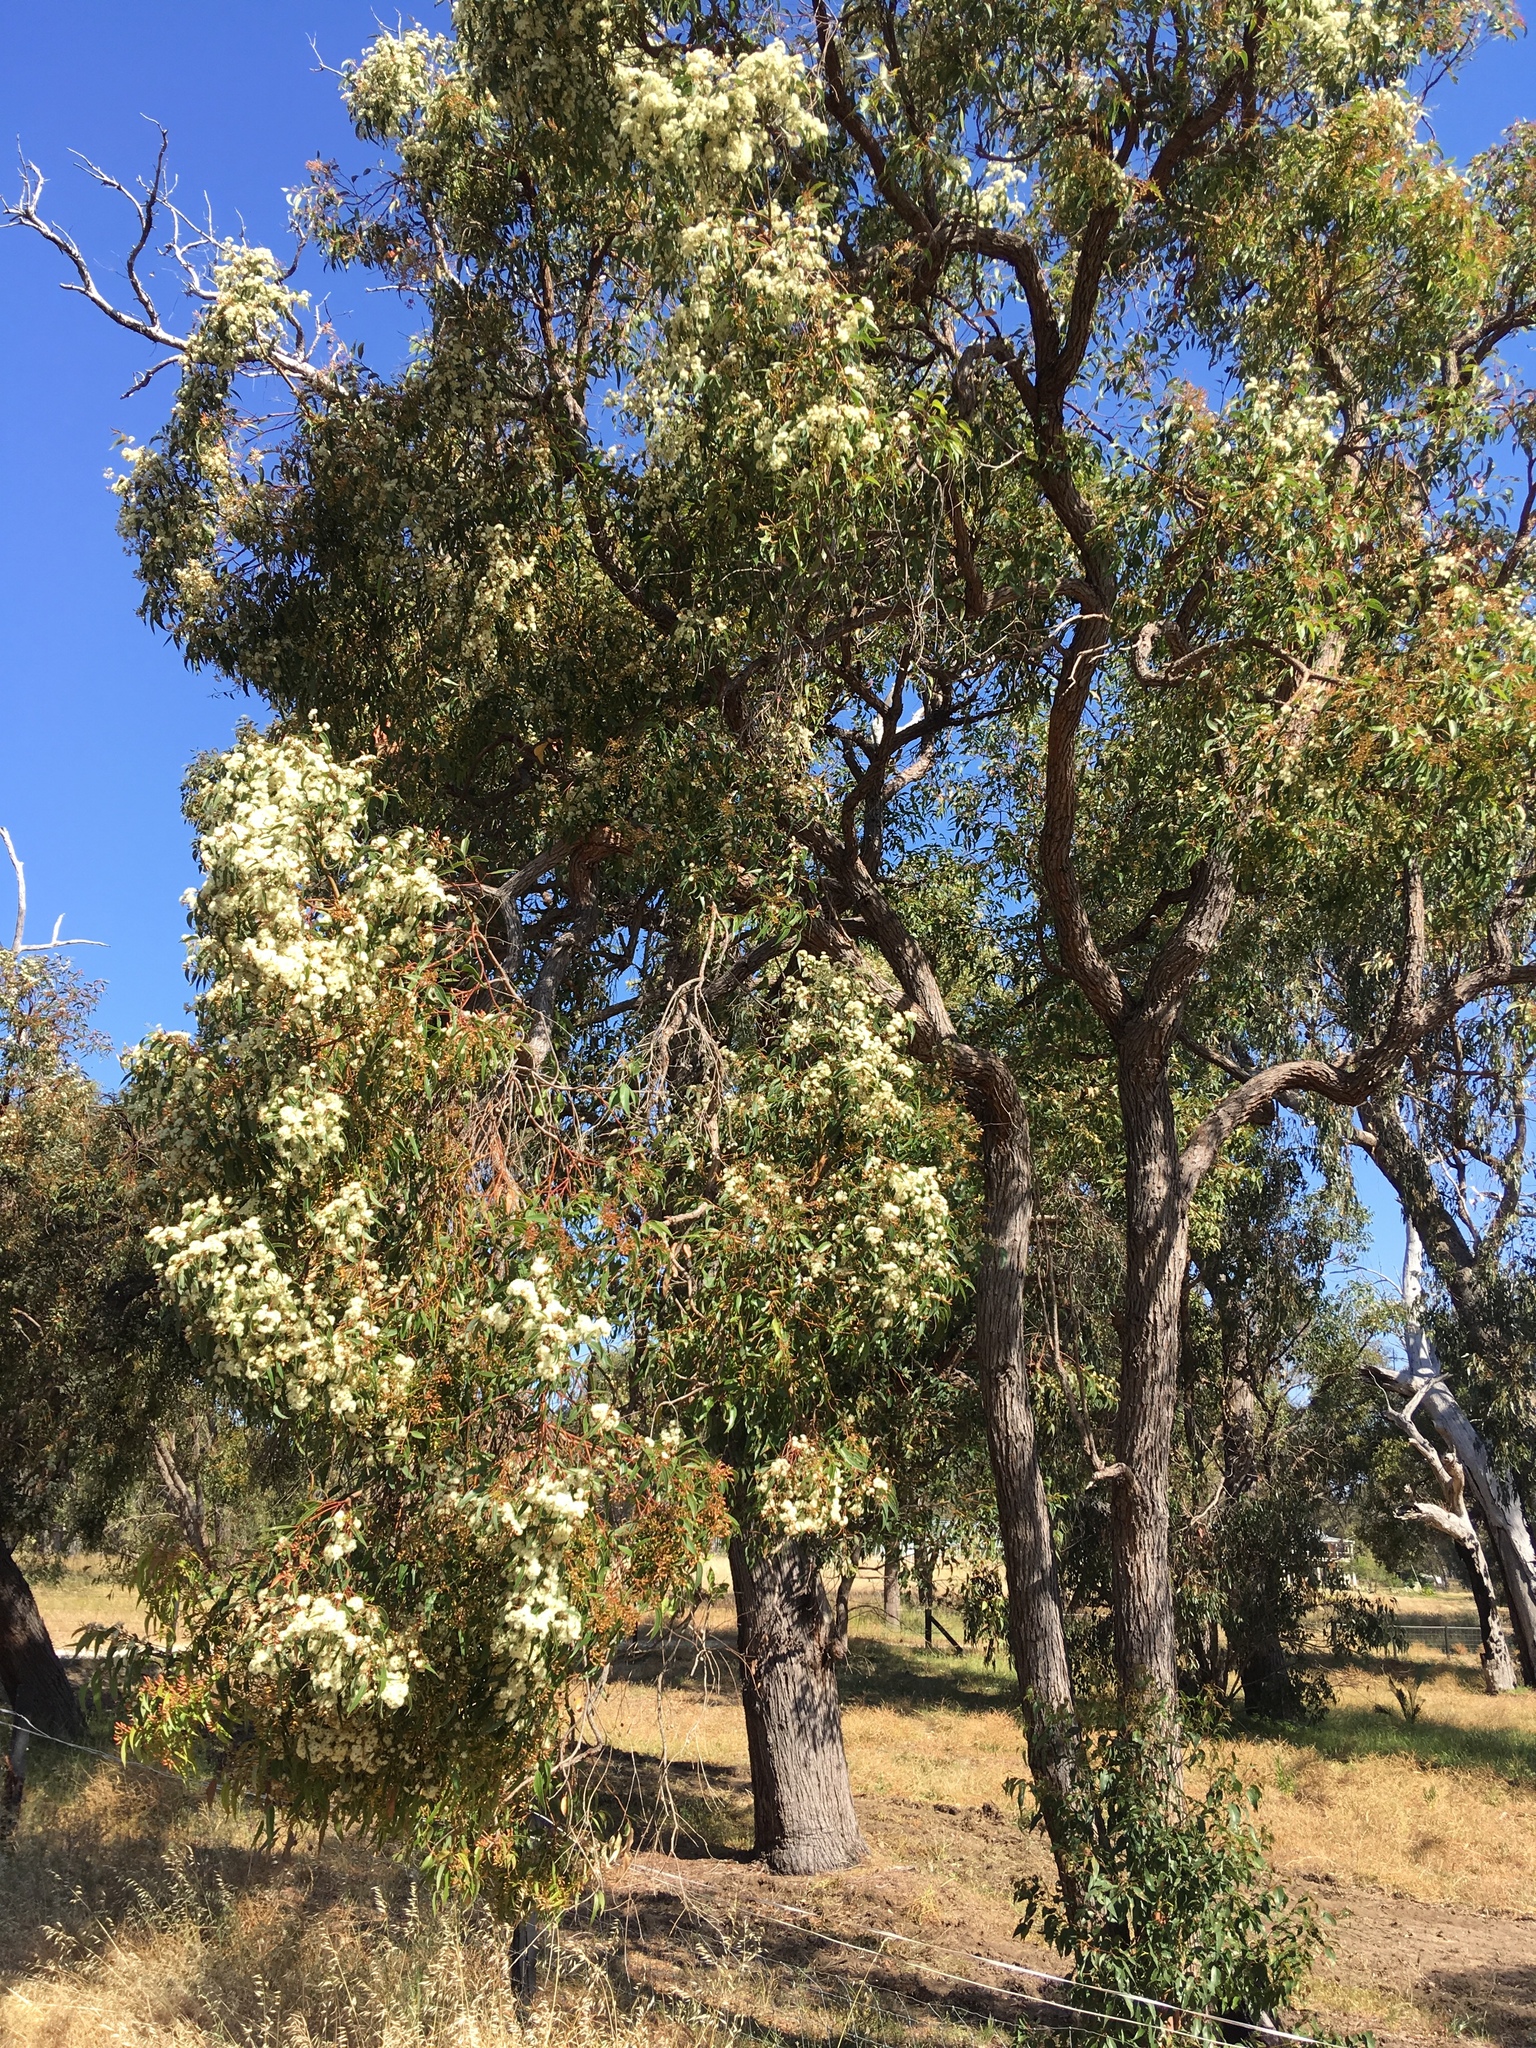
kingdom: Plantae
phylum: Tracheophyta
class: Magnoliopsida
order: Myrtales
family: Myrtaceae
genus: Eucalyptus
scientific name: Eucalyptus marginata
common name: Jarrah
